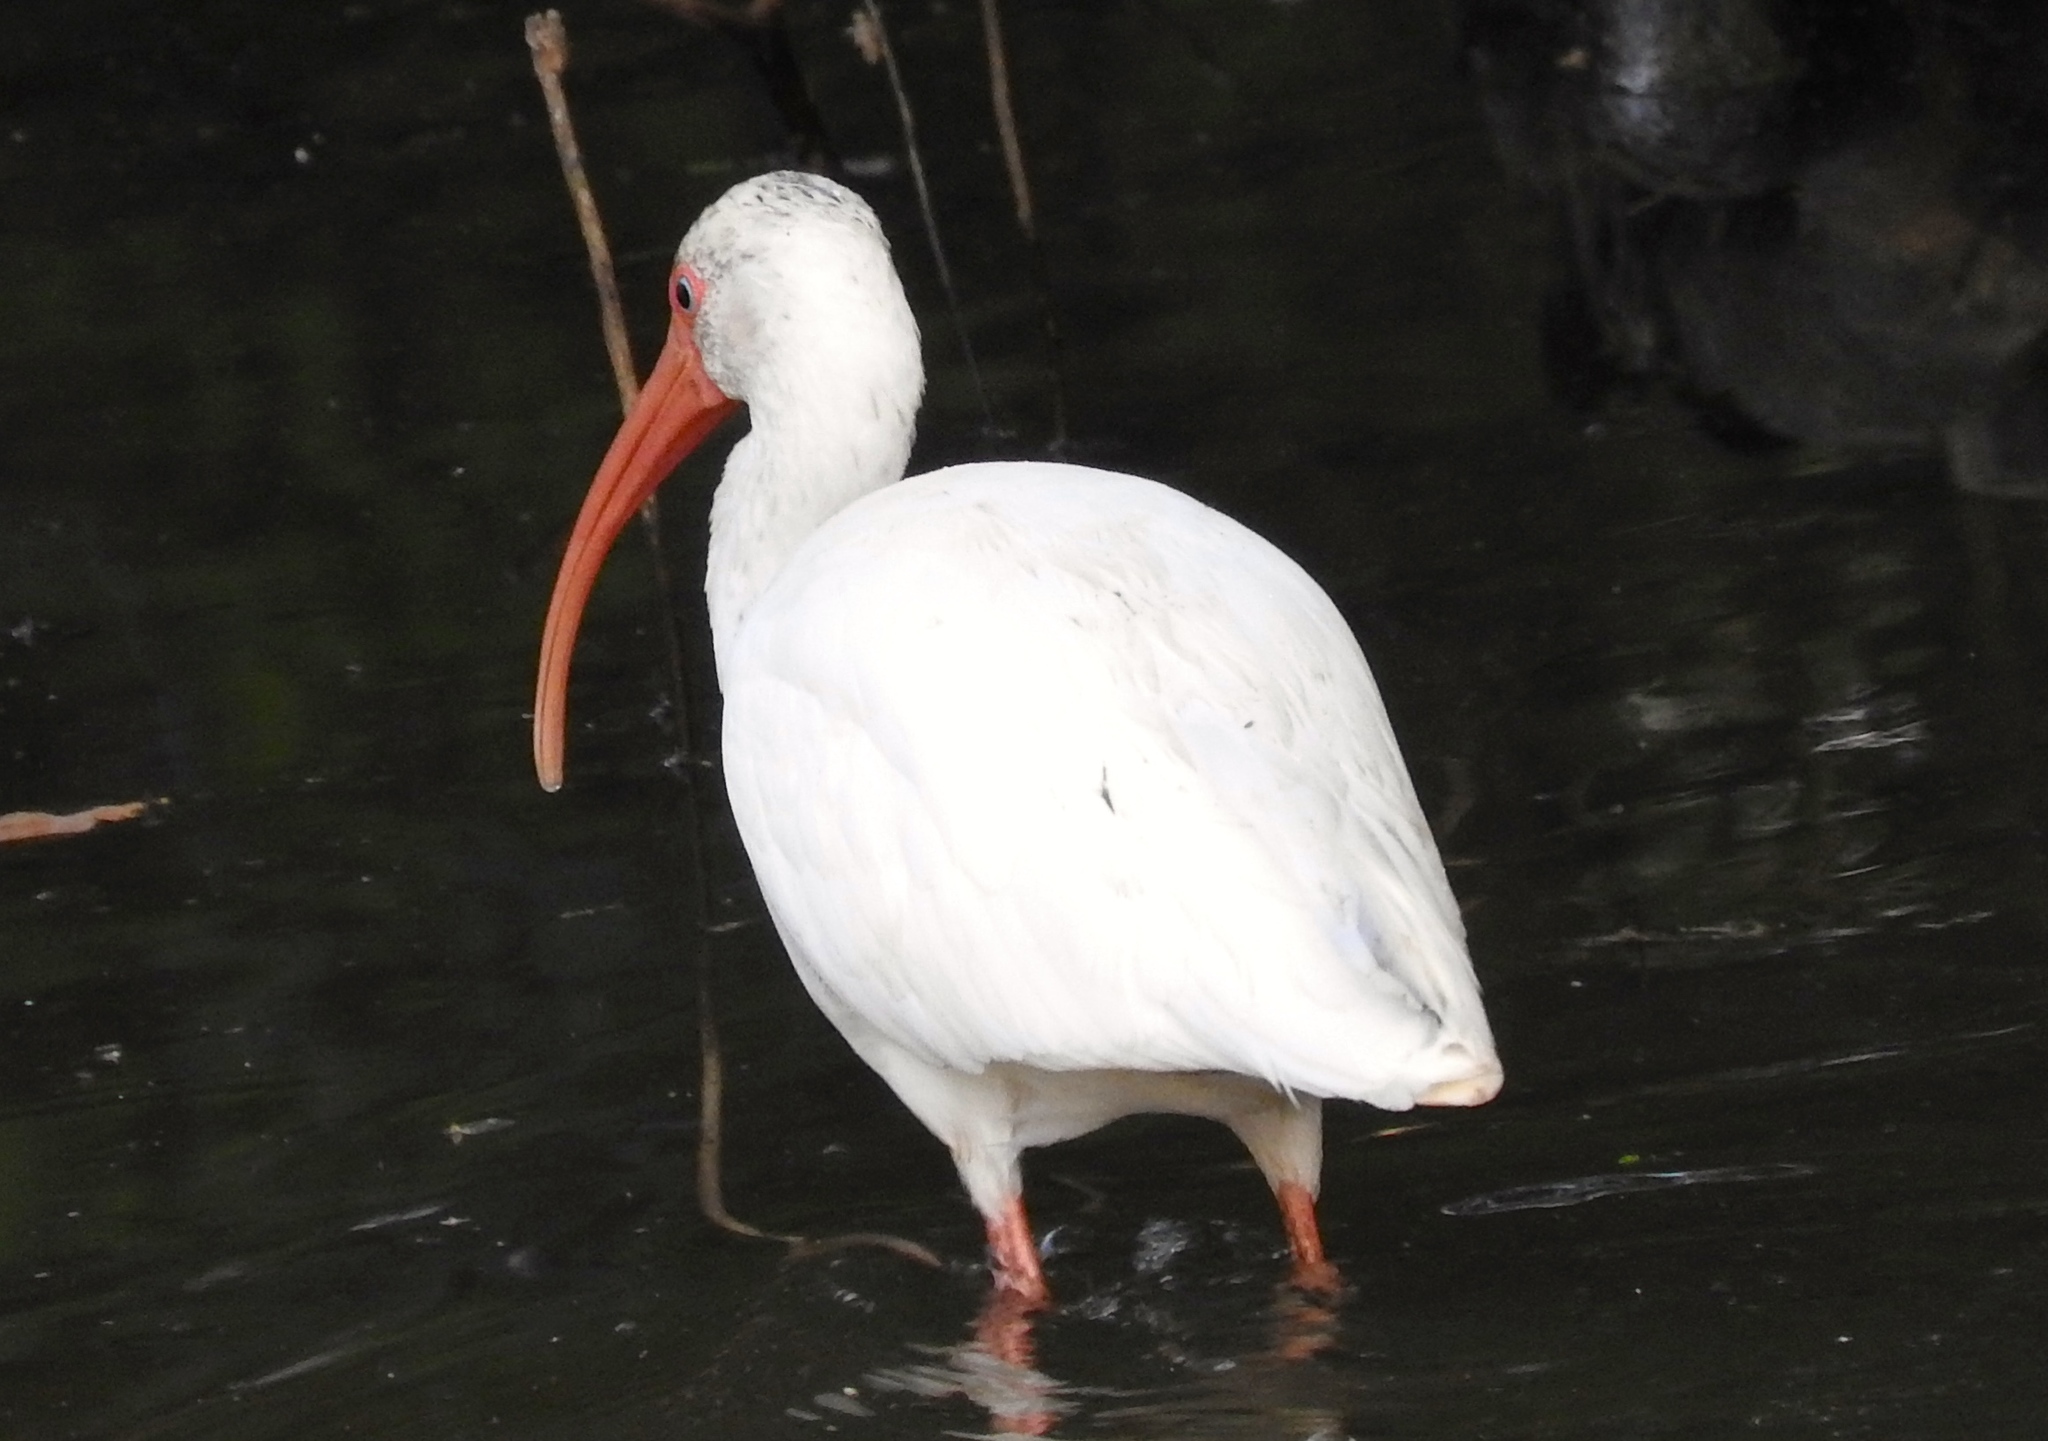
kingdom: Animalia
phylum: Chordata
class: Aves
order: Pelecaniformes
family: Threskiornithidae
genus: Eudocimus
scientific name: Eudocimus albus
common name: White ibis
